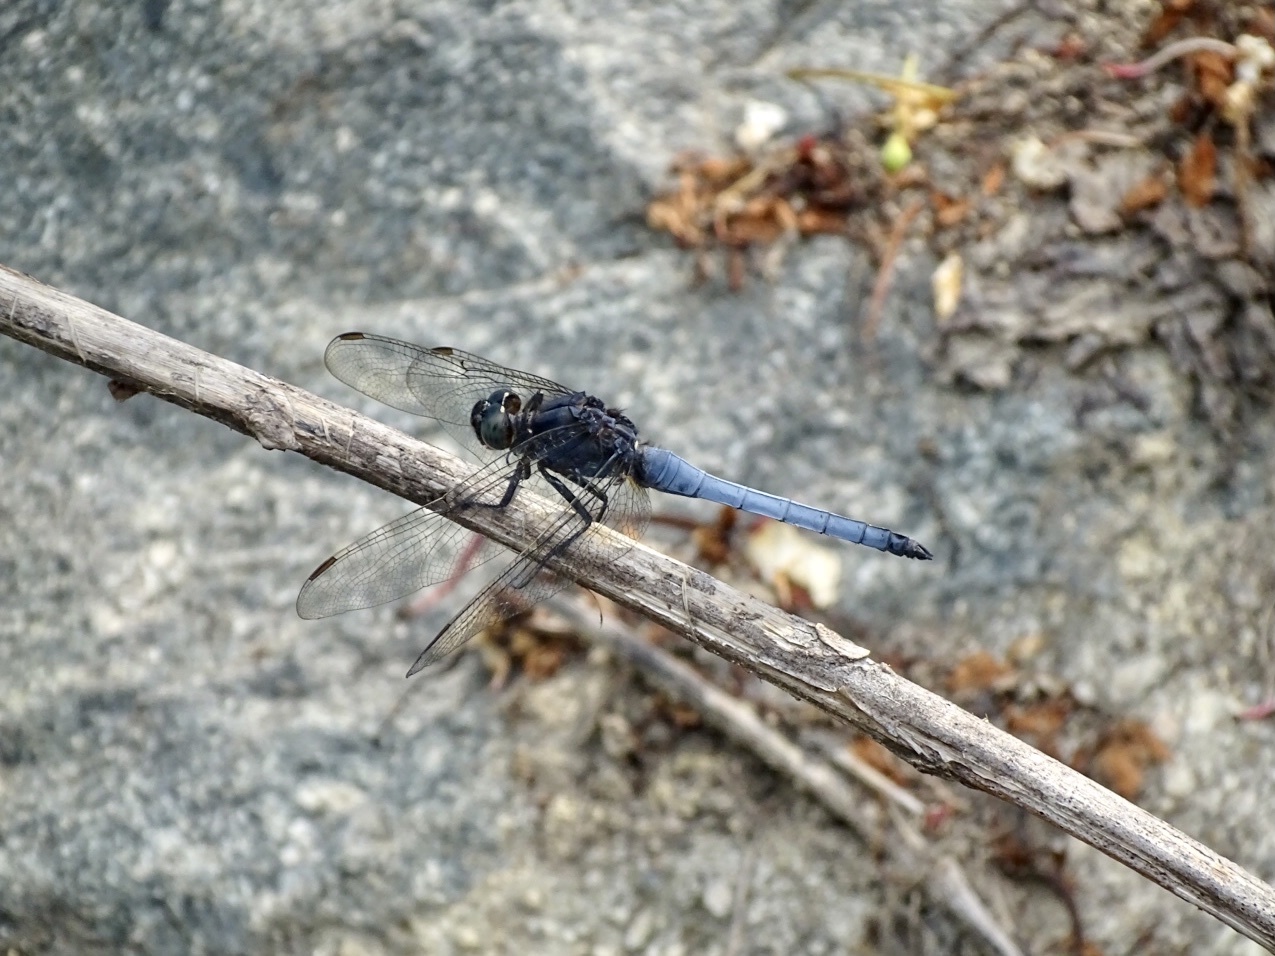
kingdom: Animalia
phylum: Arthropoda
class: Insecta
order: Odonata
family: Libellulidae
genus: Orthetrum
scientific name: Orthetrum glaucum
